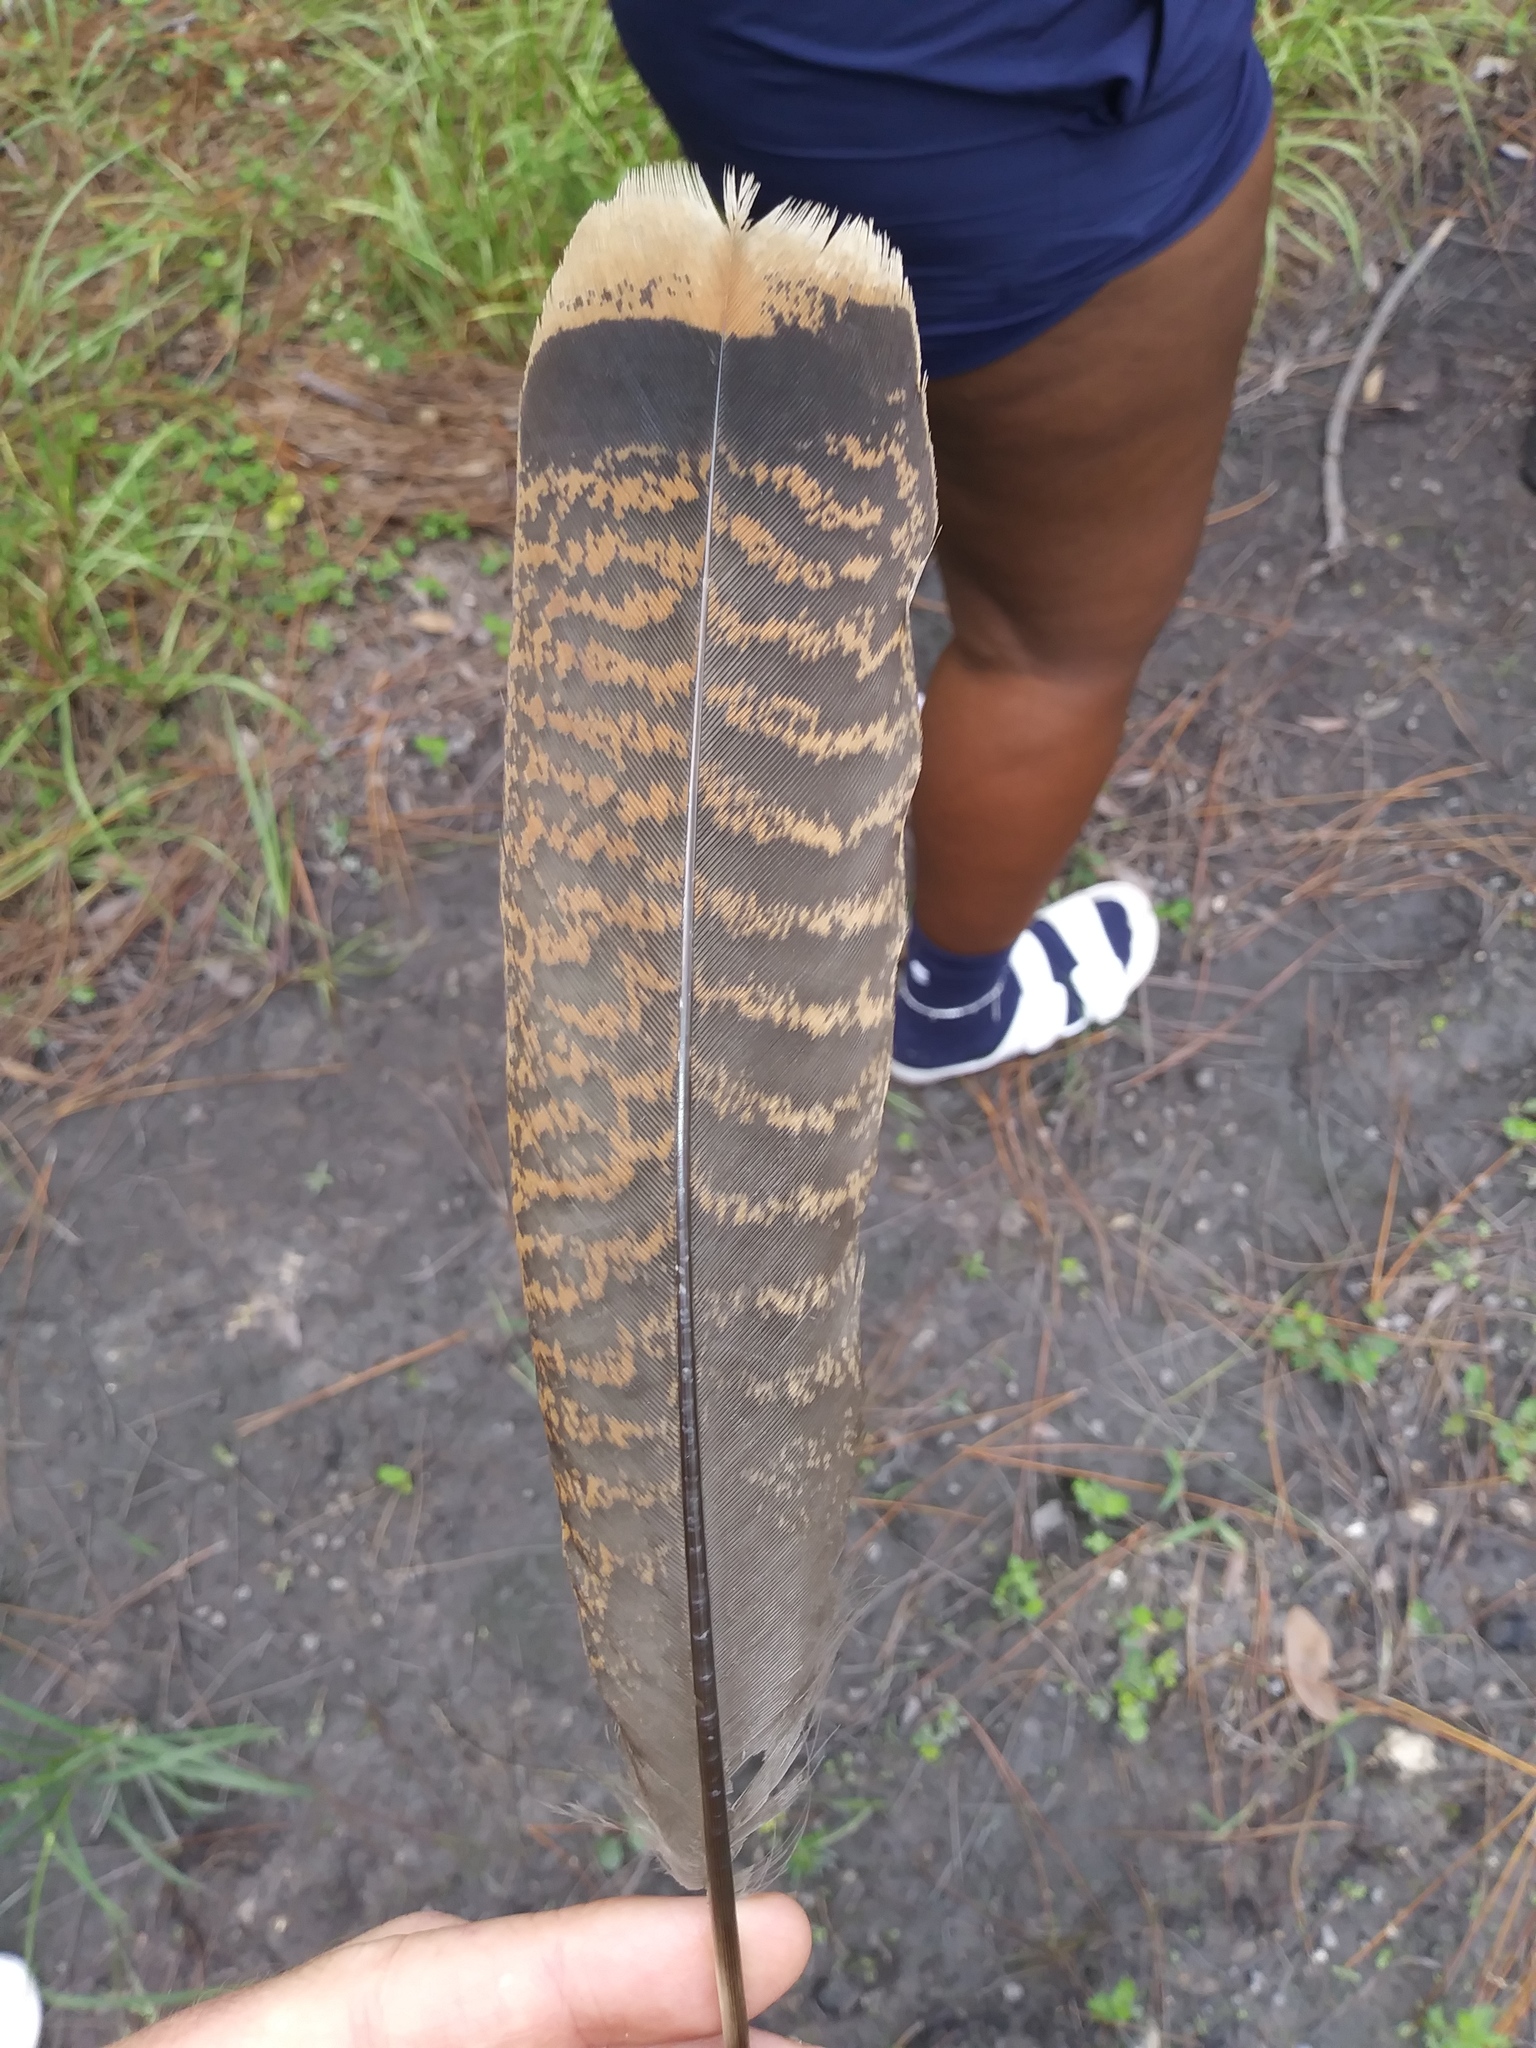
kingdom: Animalia
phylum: Chordata
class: Aves
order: Galliformes
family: Phasianidae
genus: Meleagris
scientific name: Meleagris gallopavo
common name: Wild turkey
